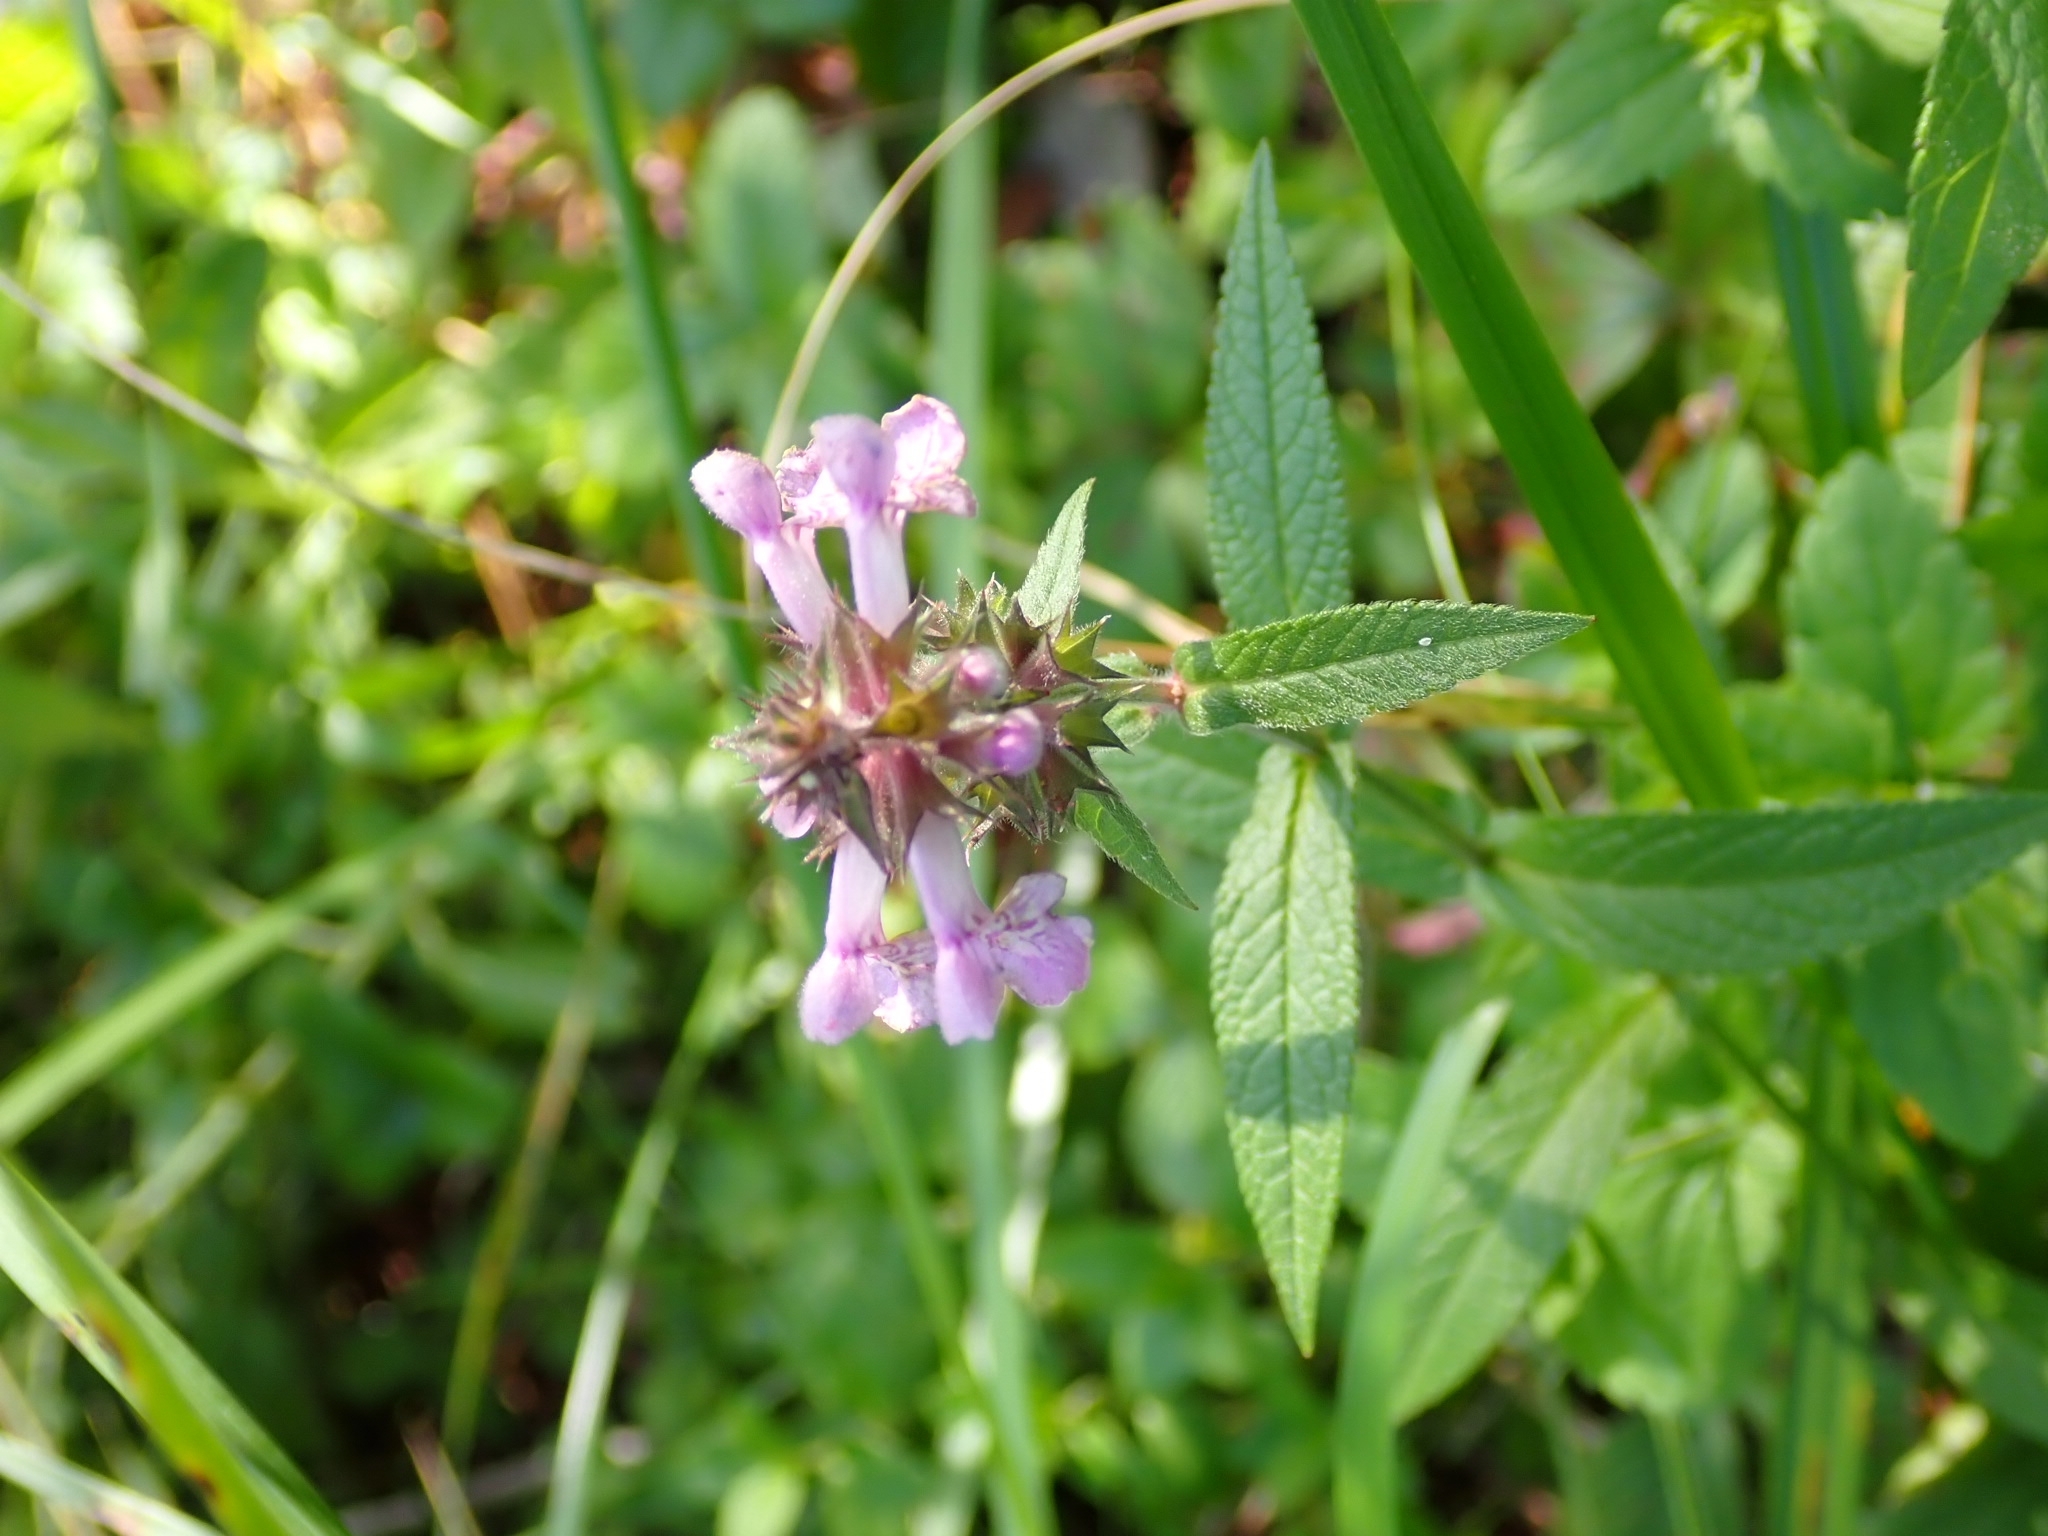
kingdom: Plantae
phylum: Tracheophyta
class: Magnoliopsida
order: Lamiales
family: Lamiaceae
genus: Stachys
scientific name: Stachys palustris
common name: Marsh woundwort
